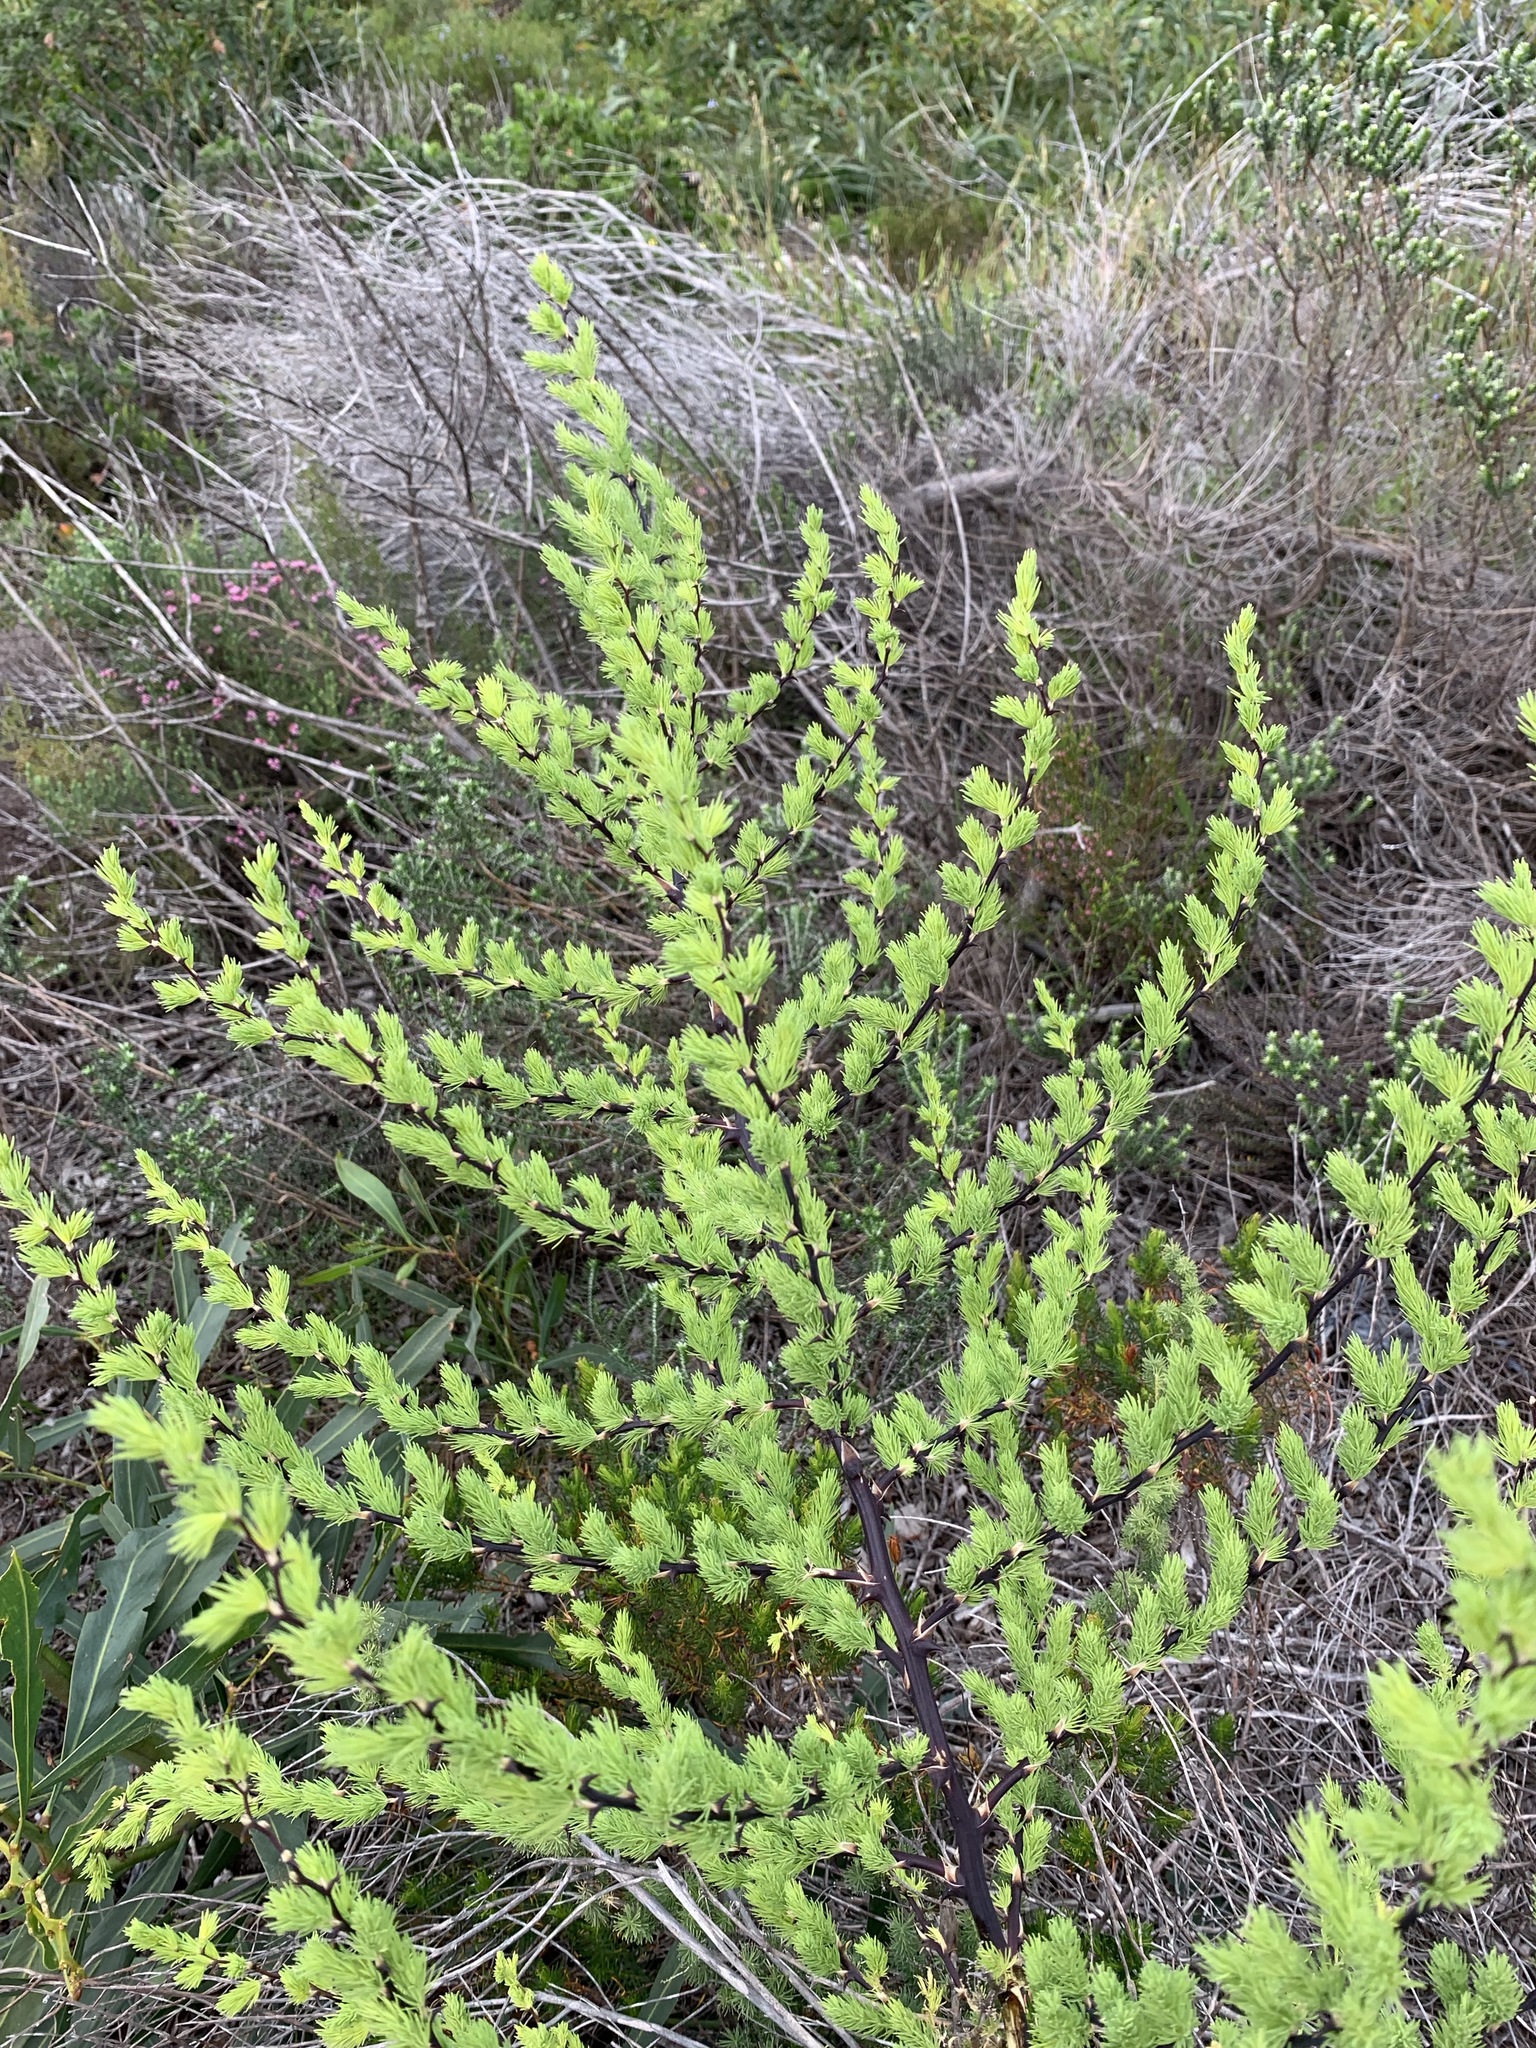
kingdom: Plantae
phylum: Tracheophyta
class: Liliopsida
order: Asparagales
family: Asparagaceae
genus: Asparagus
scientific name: Asparagus rubicundus
